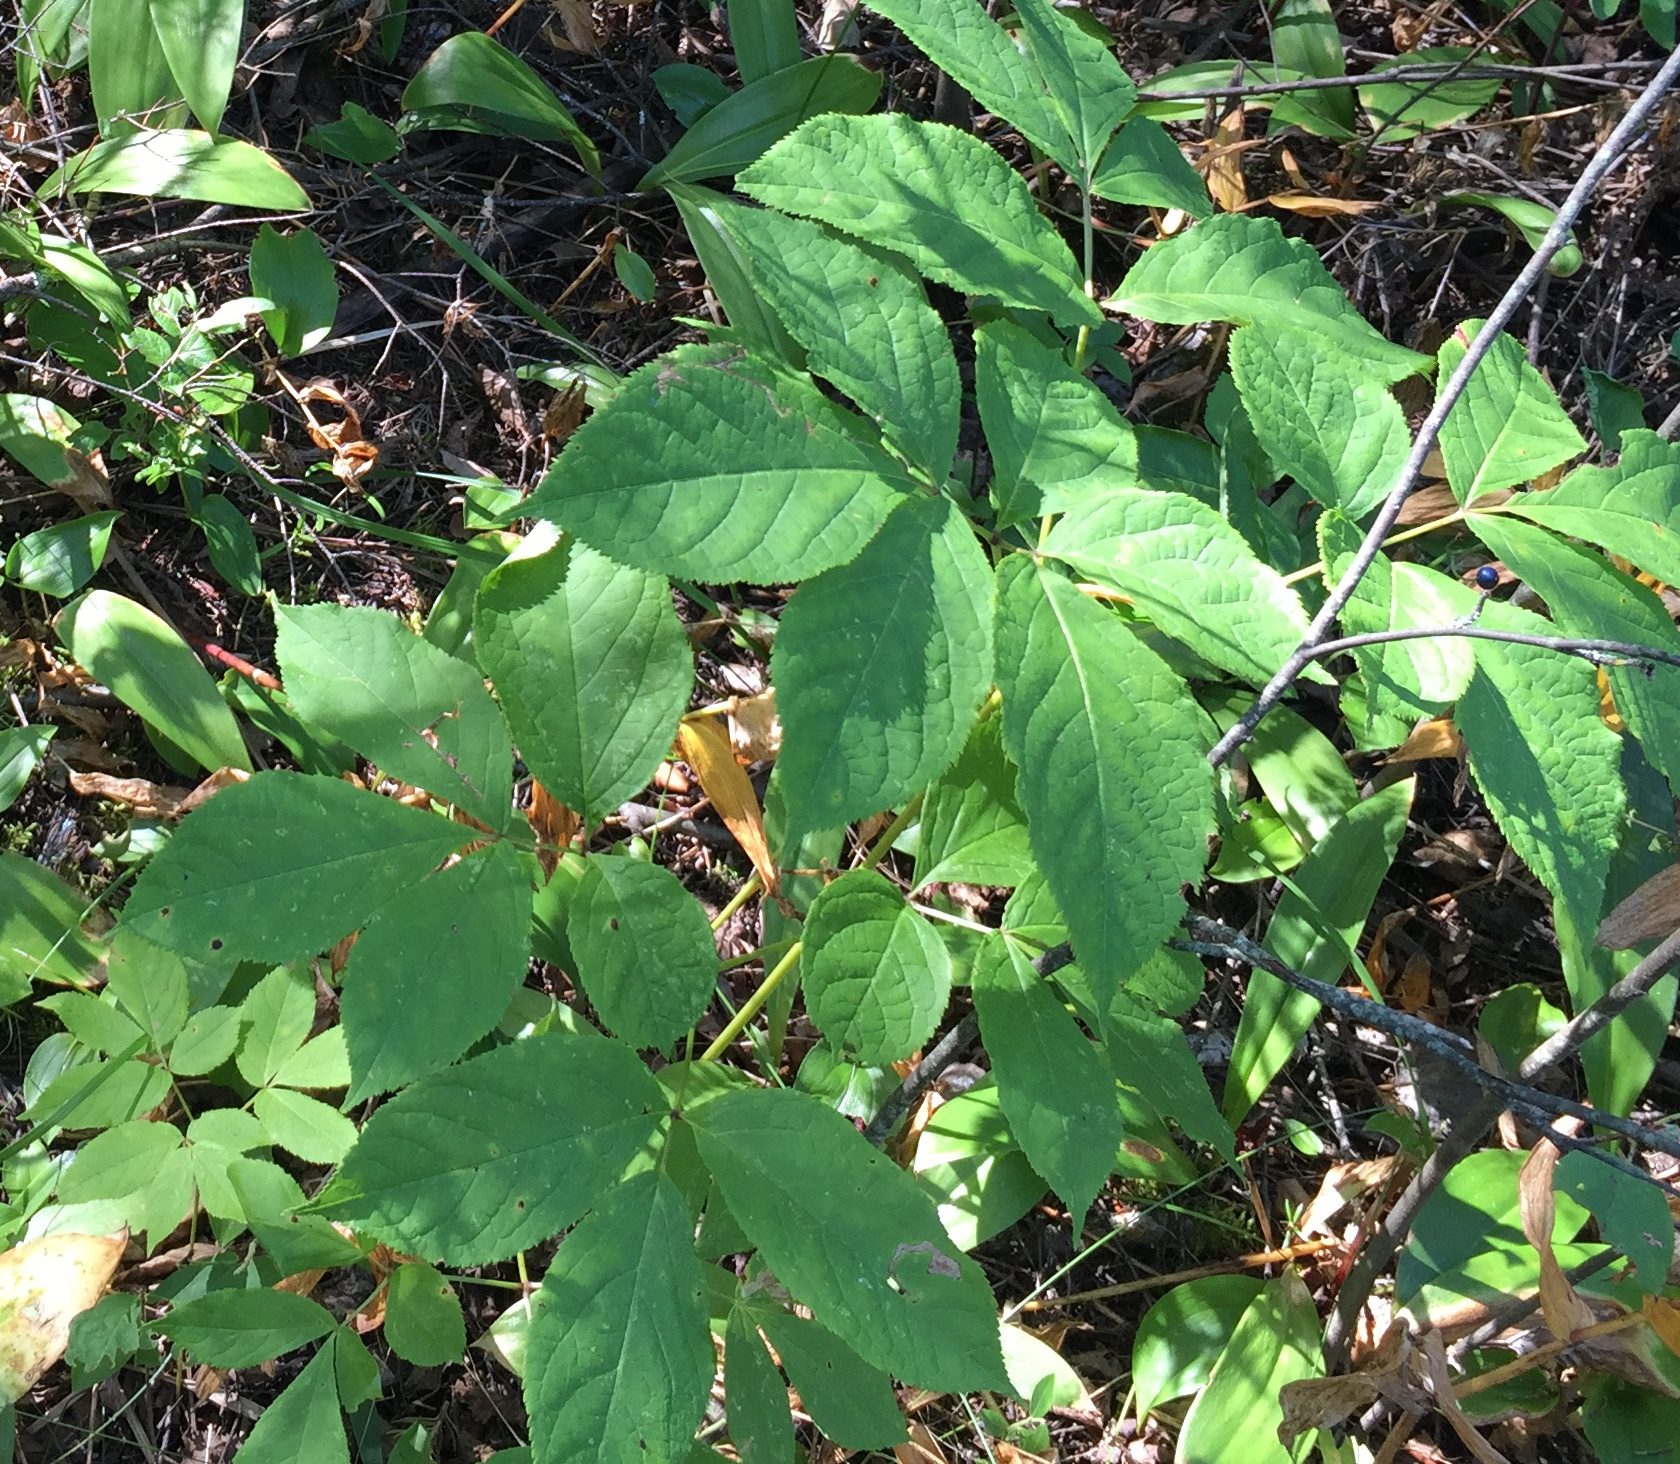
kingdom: Plantae
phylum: Tracheophyta
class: Magnoliopsida
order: Apiales
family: Araliaceae
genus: Aralia
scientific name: Aralia nudicaulis
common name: Wild sarsaparilla
